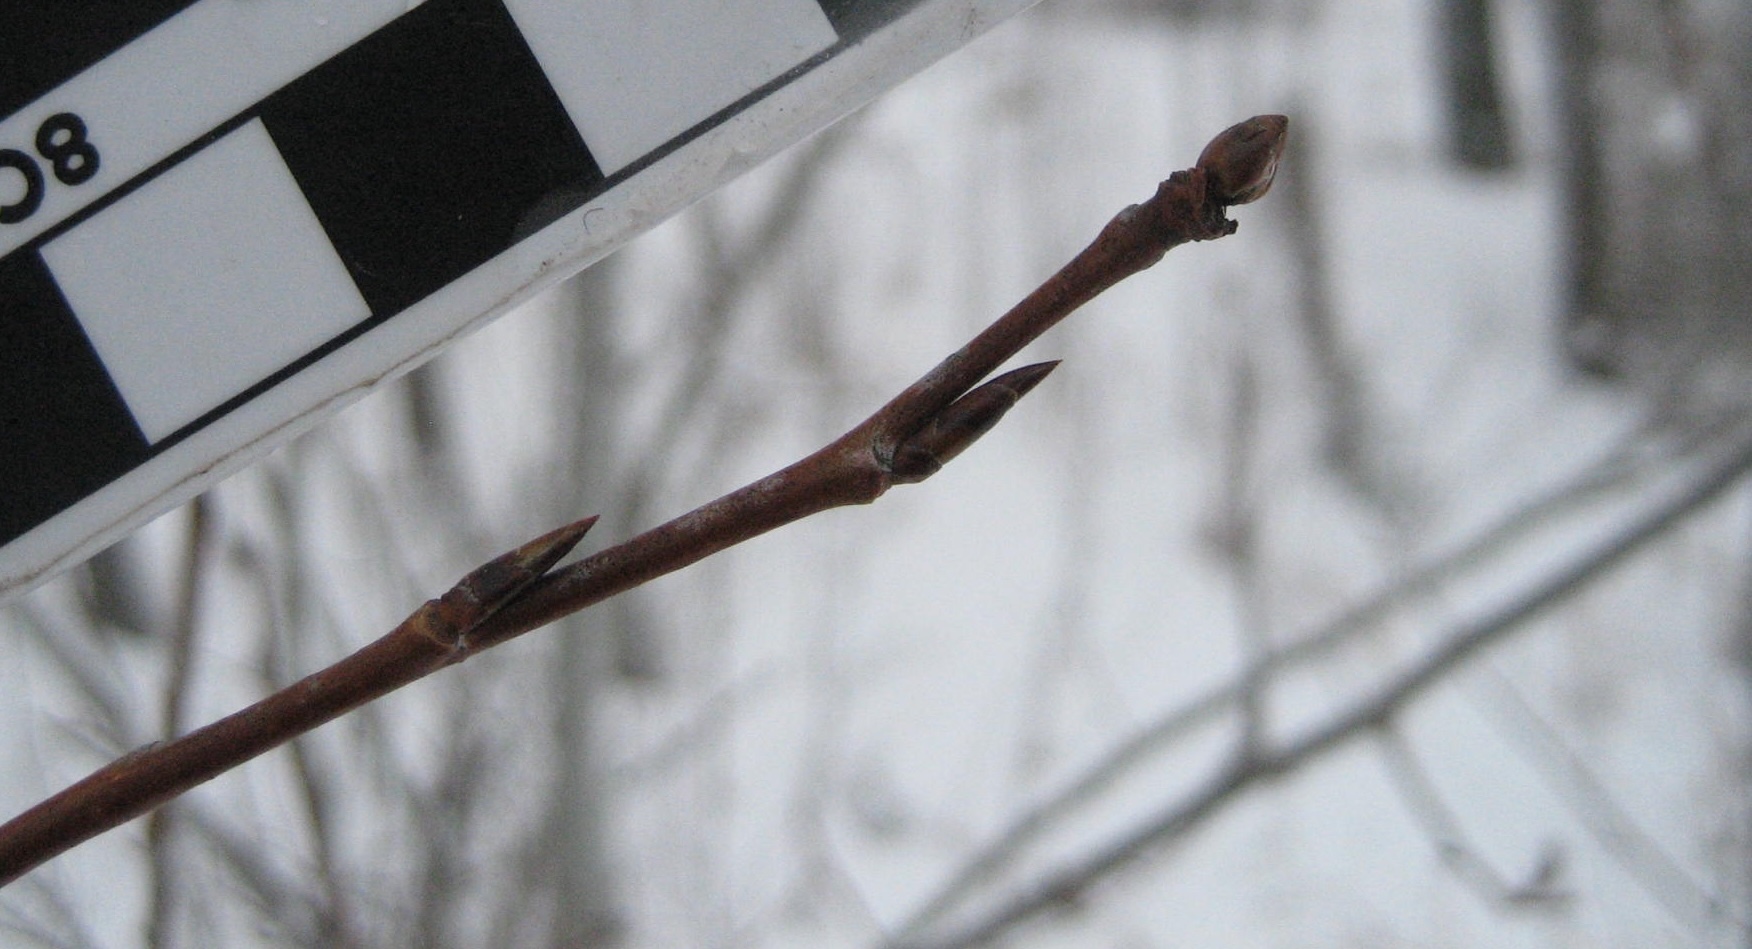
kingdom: Plantae
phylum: Tracheophyta
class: Magnoliopsida
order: Malpighiales
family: Salicaceae
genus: Populus
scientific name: Populus tremuloides
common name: Quaking aspen
